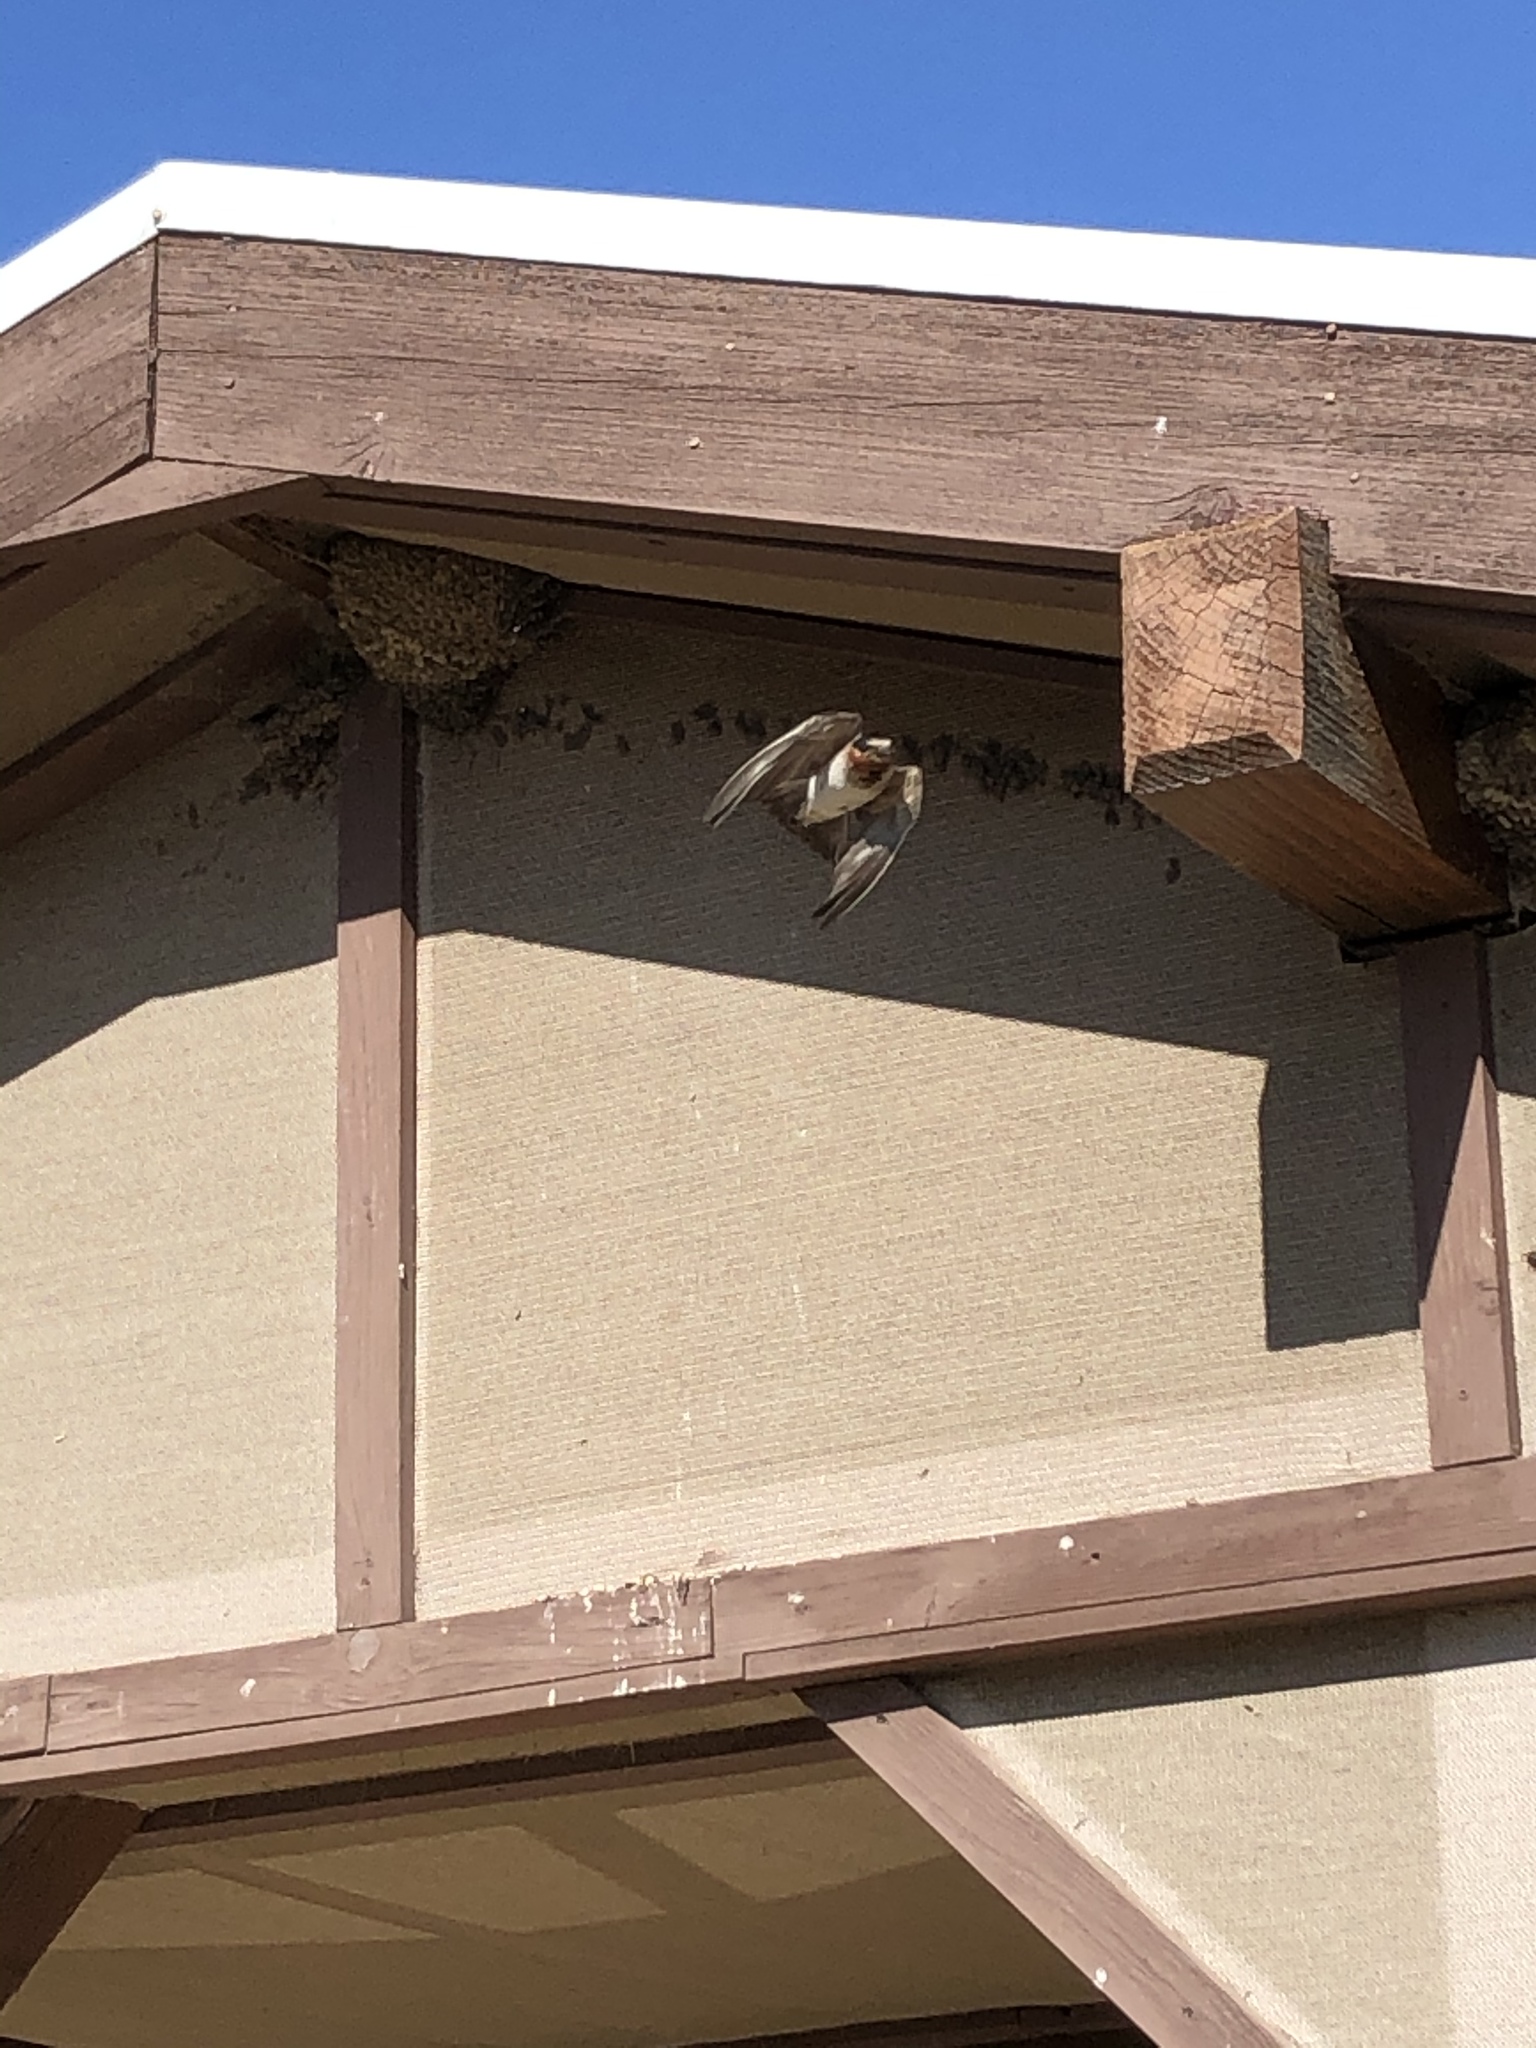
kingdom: Animalia
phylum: Chordata
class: Aves
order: Passeriformes
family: Hirundinidae
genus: Petrochelidon
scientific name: Petrochelidon pyrrhonota
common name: American cliff swallow
